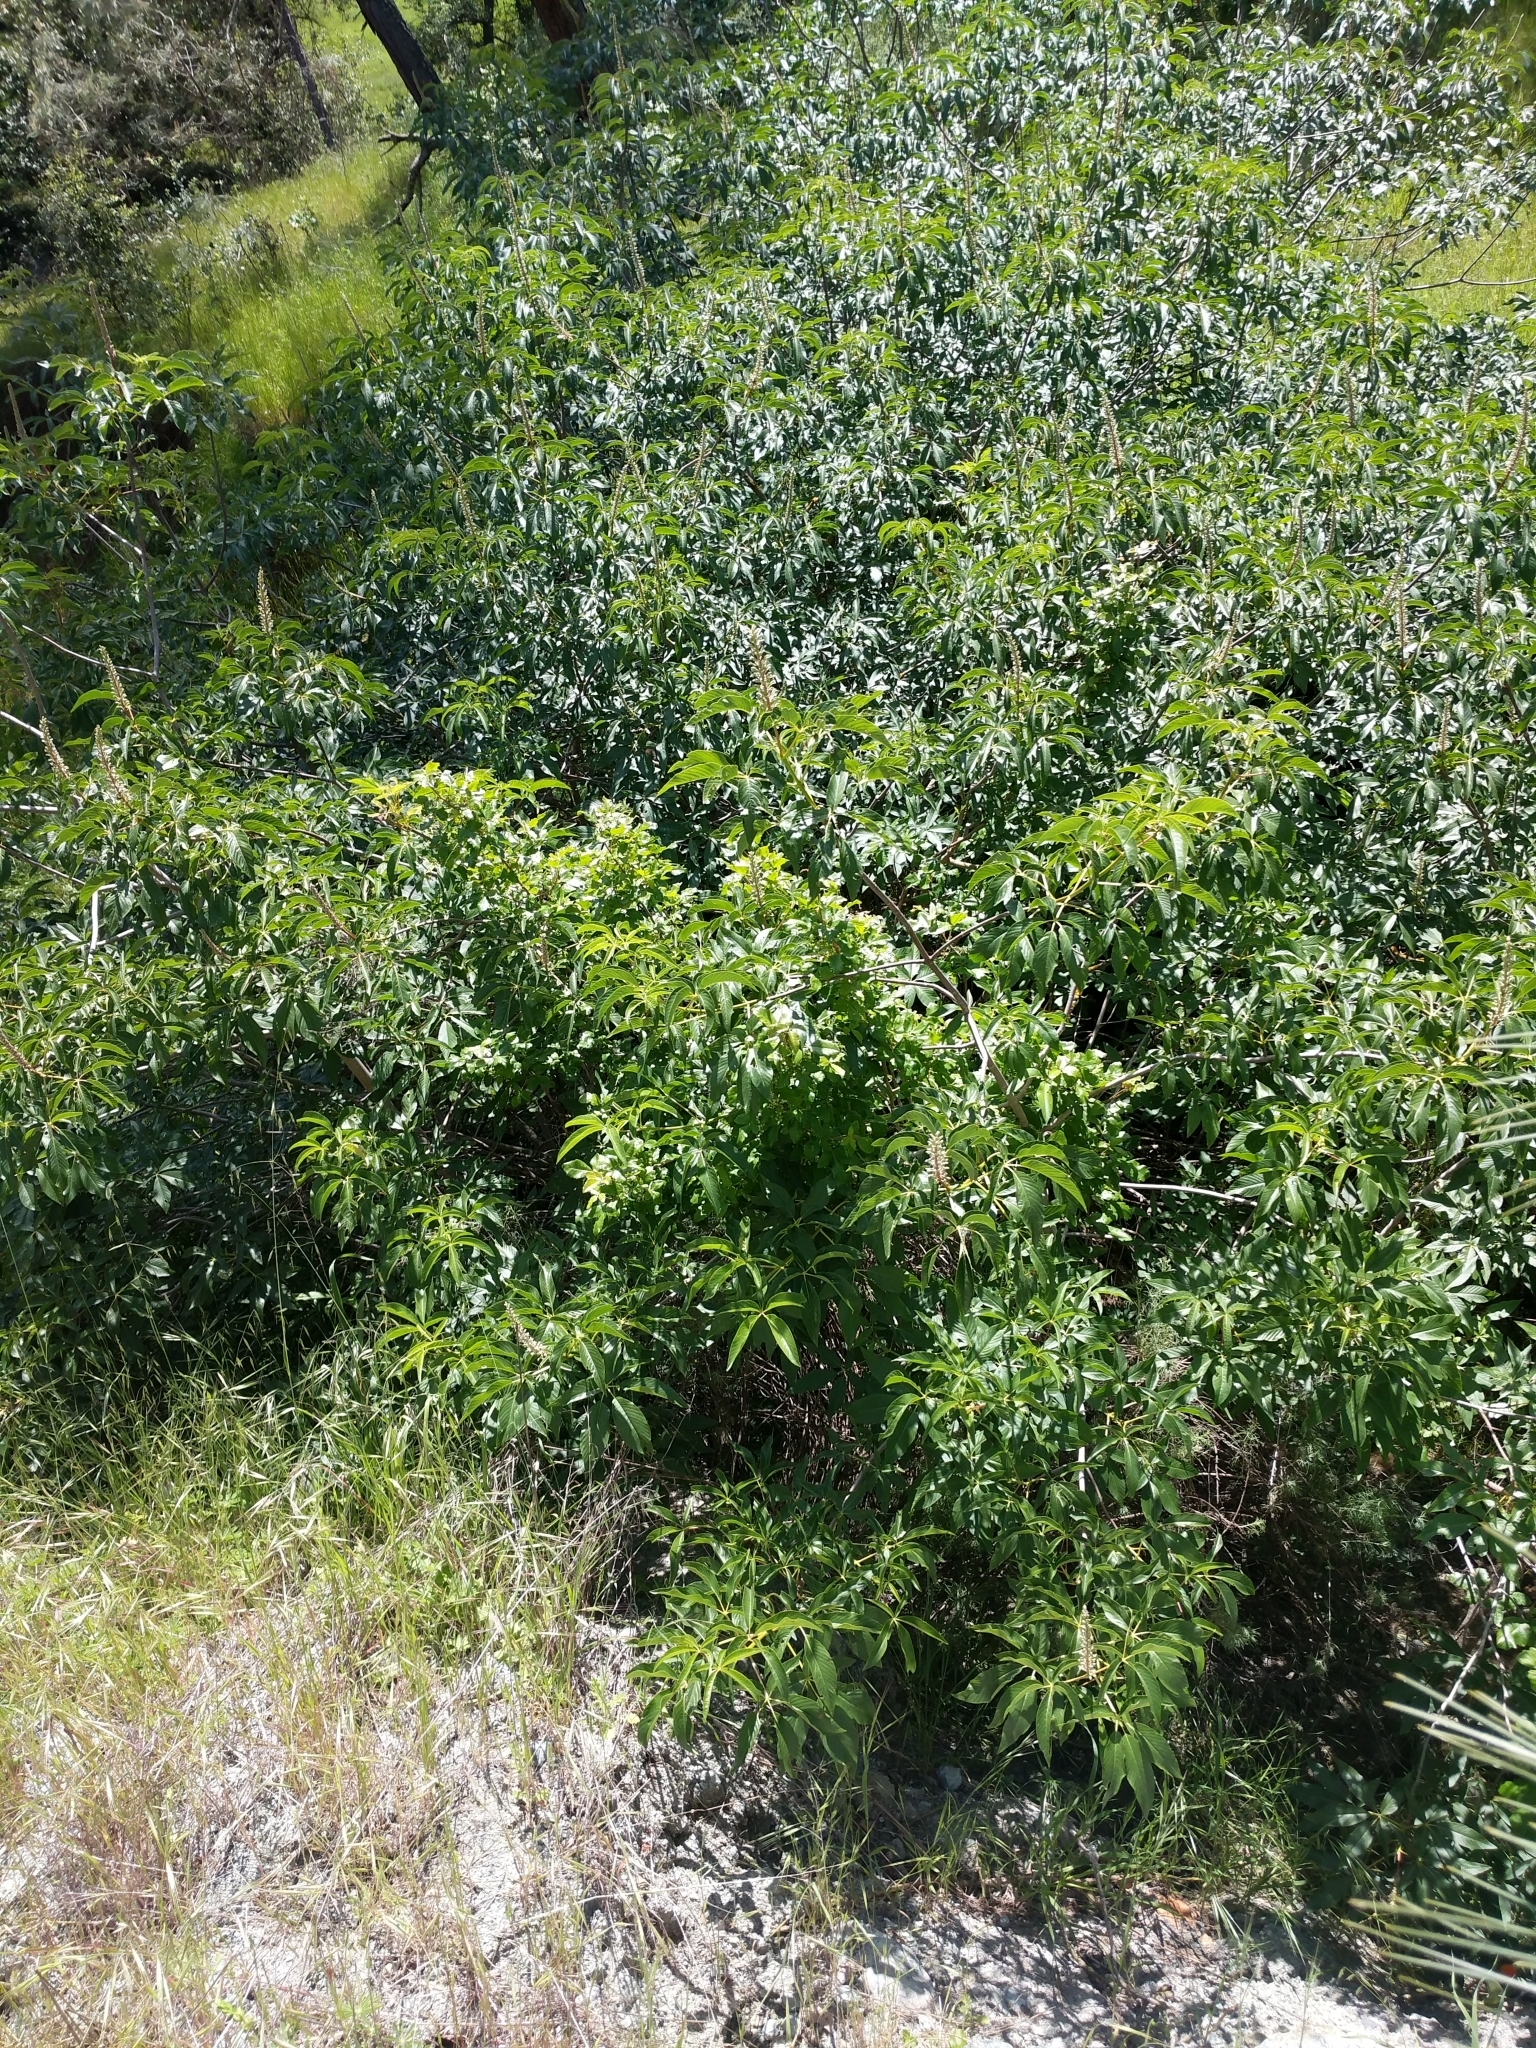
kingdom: Plantae
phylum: Tracheophyta
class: Magnoliopsida
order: Sapindales
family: Sapindaceae
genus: Aesculus
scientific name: Aesculus californica
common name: California buckeye
